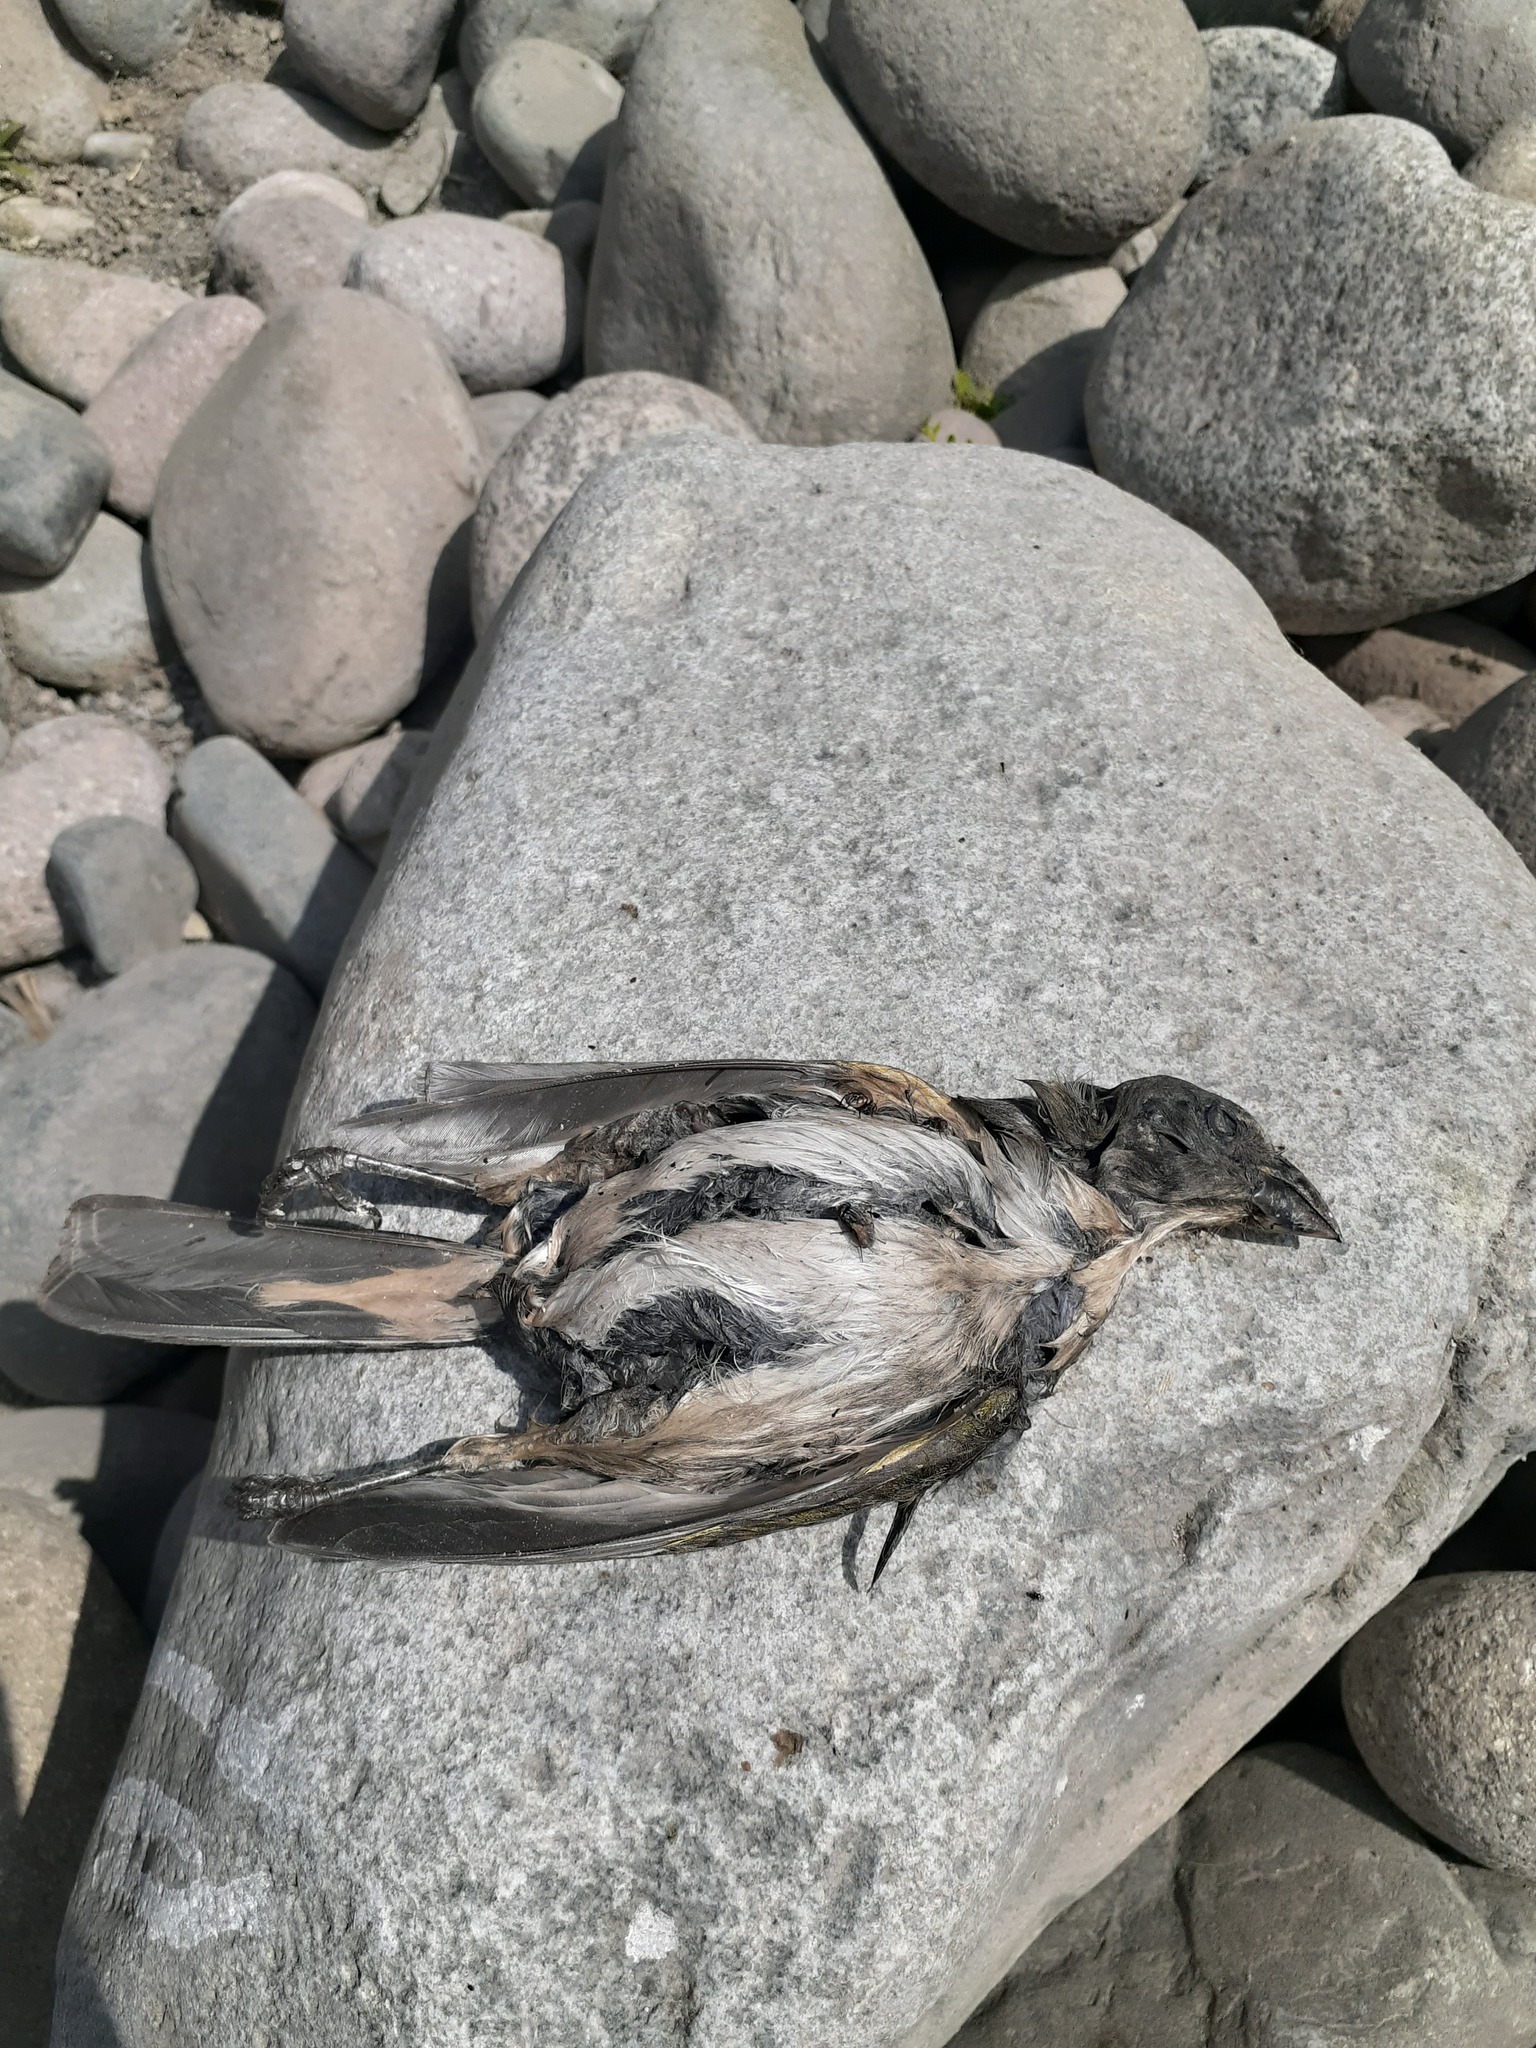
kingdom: Animalia
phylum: Chordata
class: Aves
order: Passeriformes
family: Thraupidae
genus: Saltator
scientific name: Saltator striatipectus
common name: Streaked saltator
